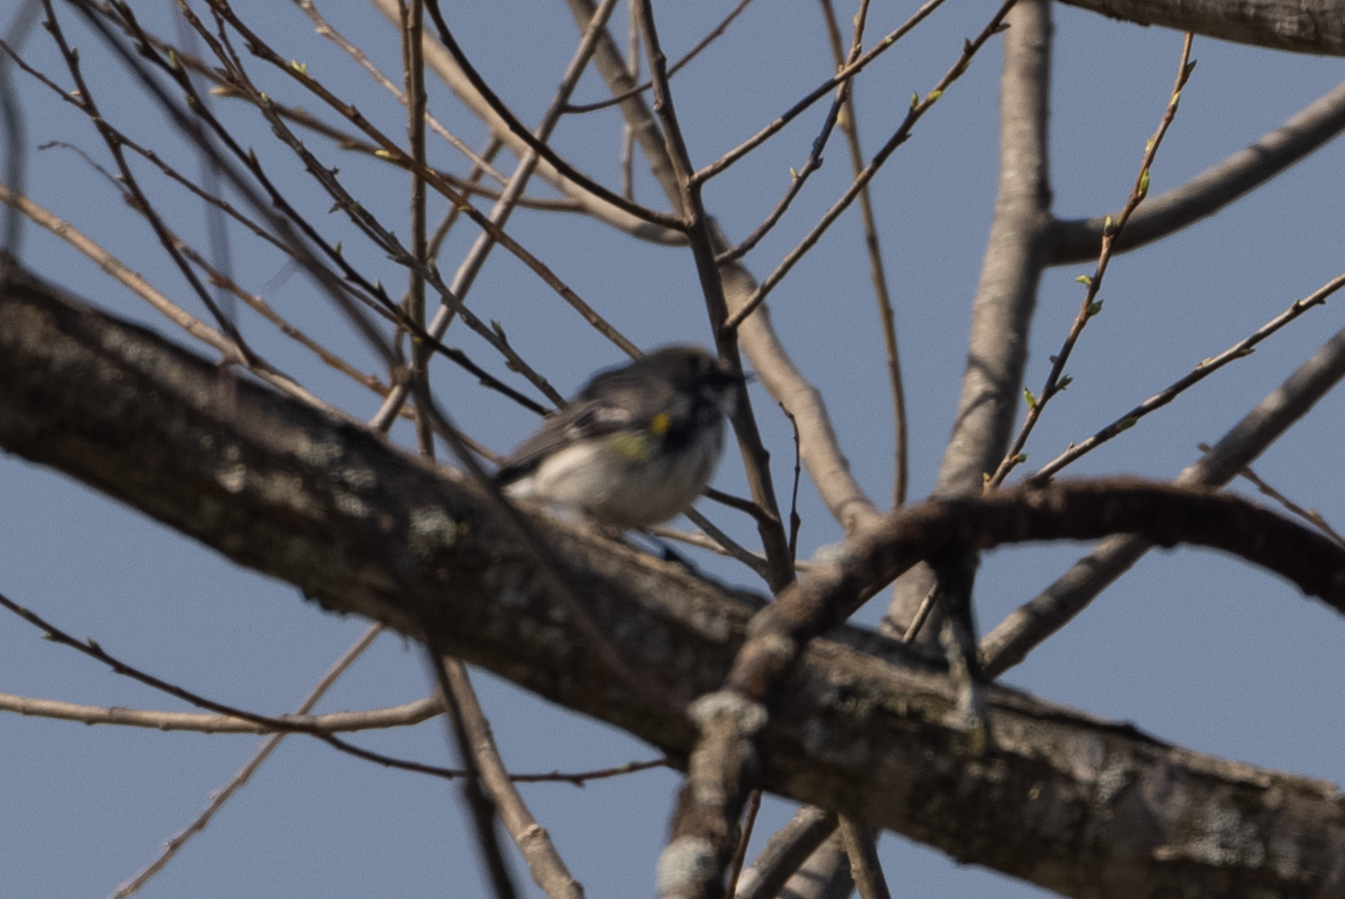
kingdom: Animalia
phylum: Chordata
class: Aves
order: Passeriformes
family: Parulidae
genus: Setophaga
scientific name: Setophaga coronata
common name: Myrtle warbler
